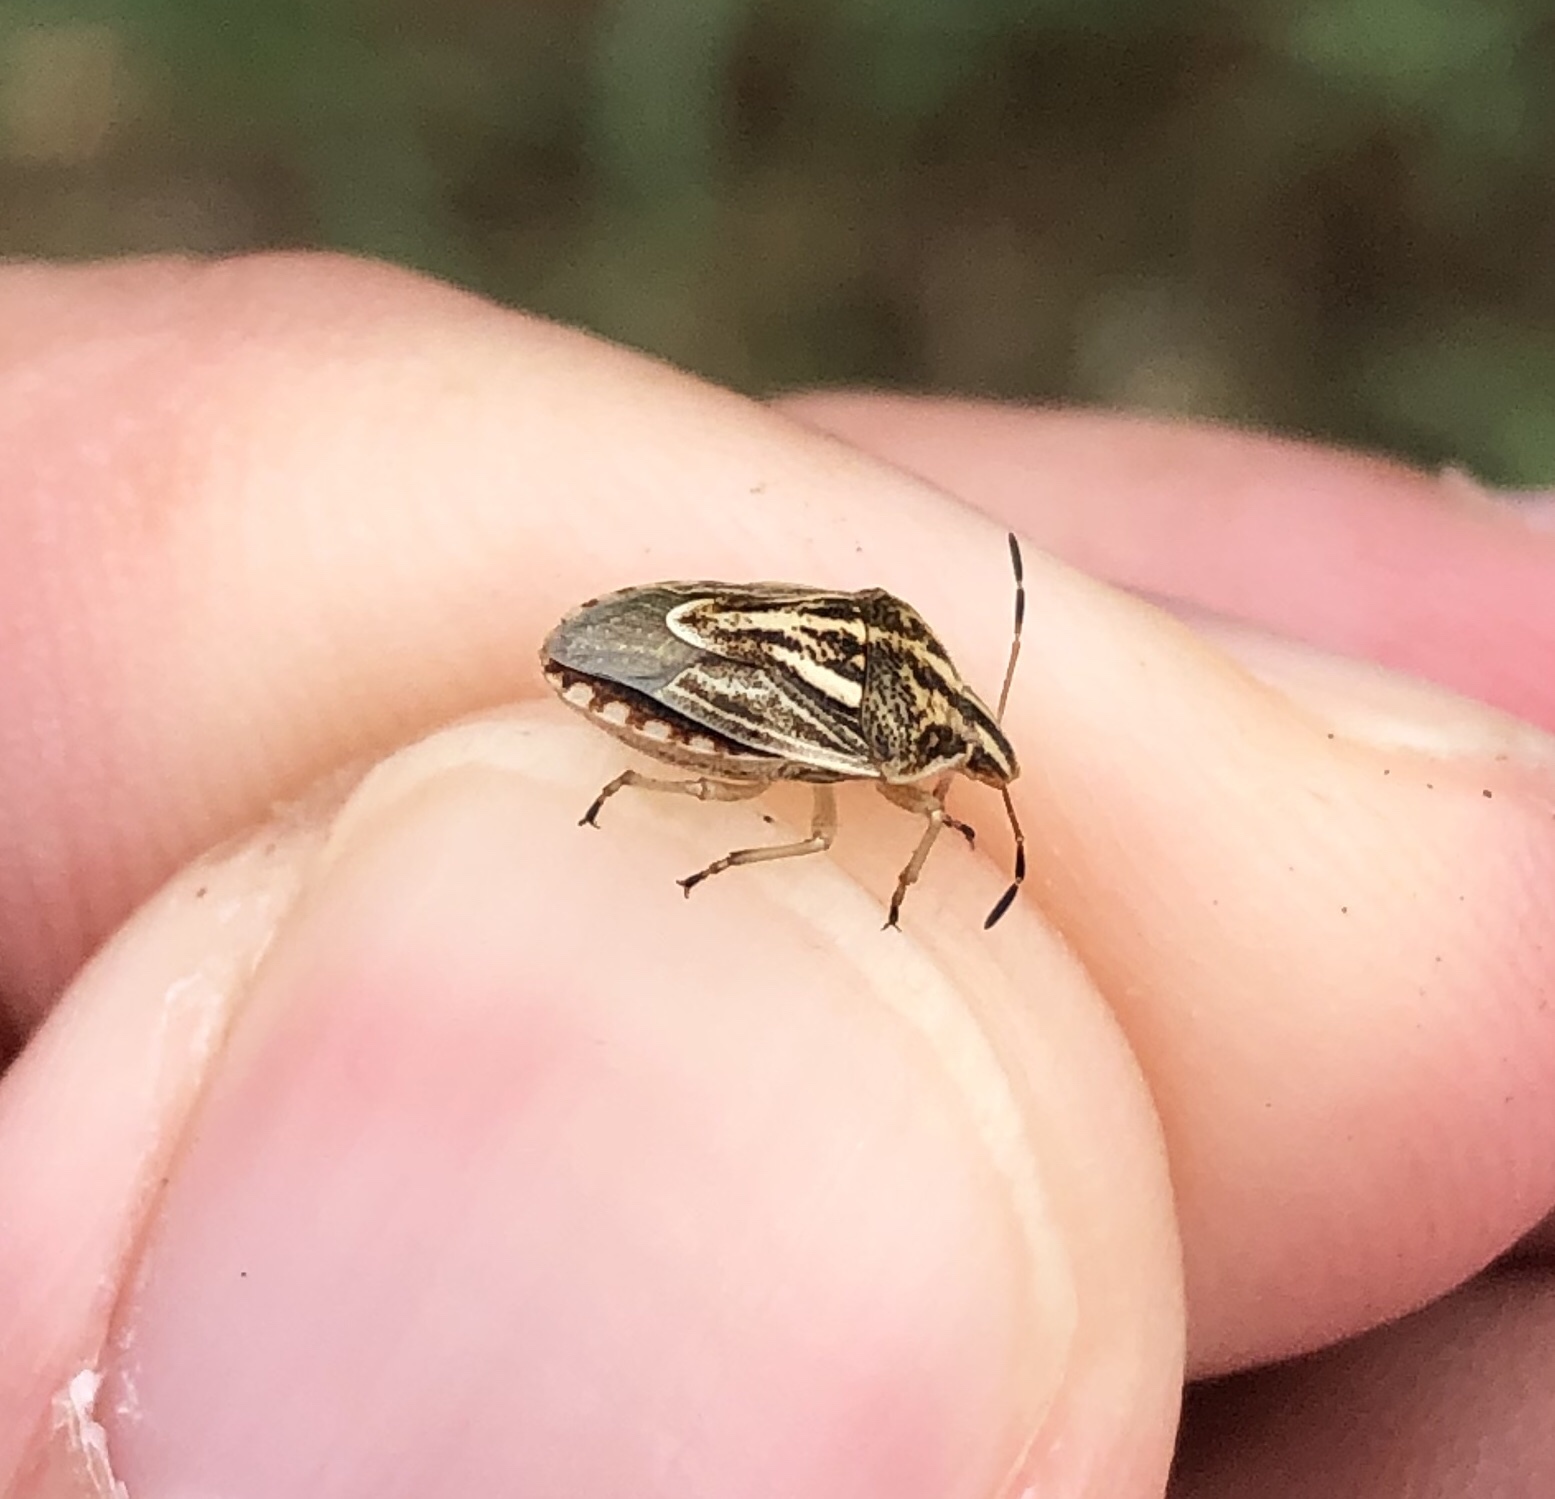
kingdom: Animalia
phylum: Arthropoda
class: Insecta
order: Hemiptera
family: Pentatomidae
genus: Trichopepla
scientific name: Trichopepla semivittata
